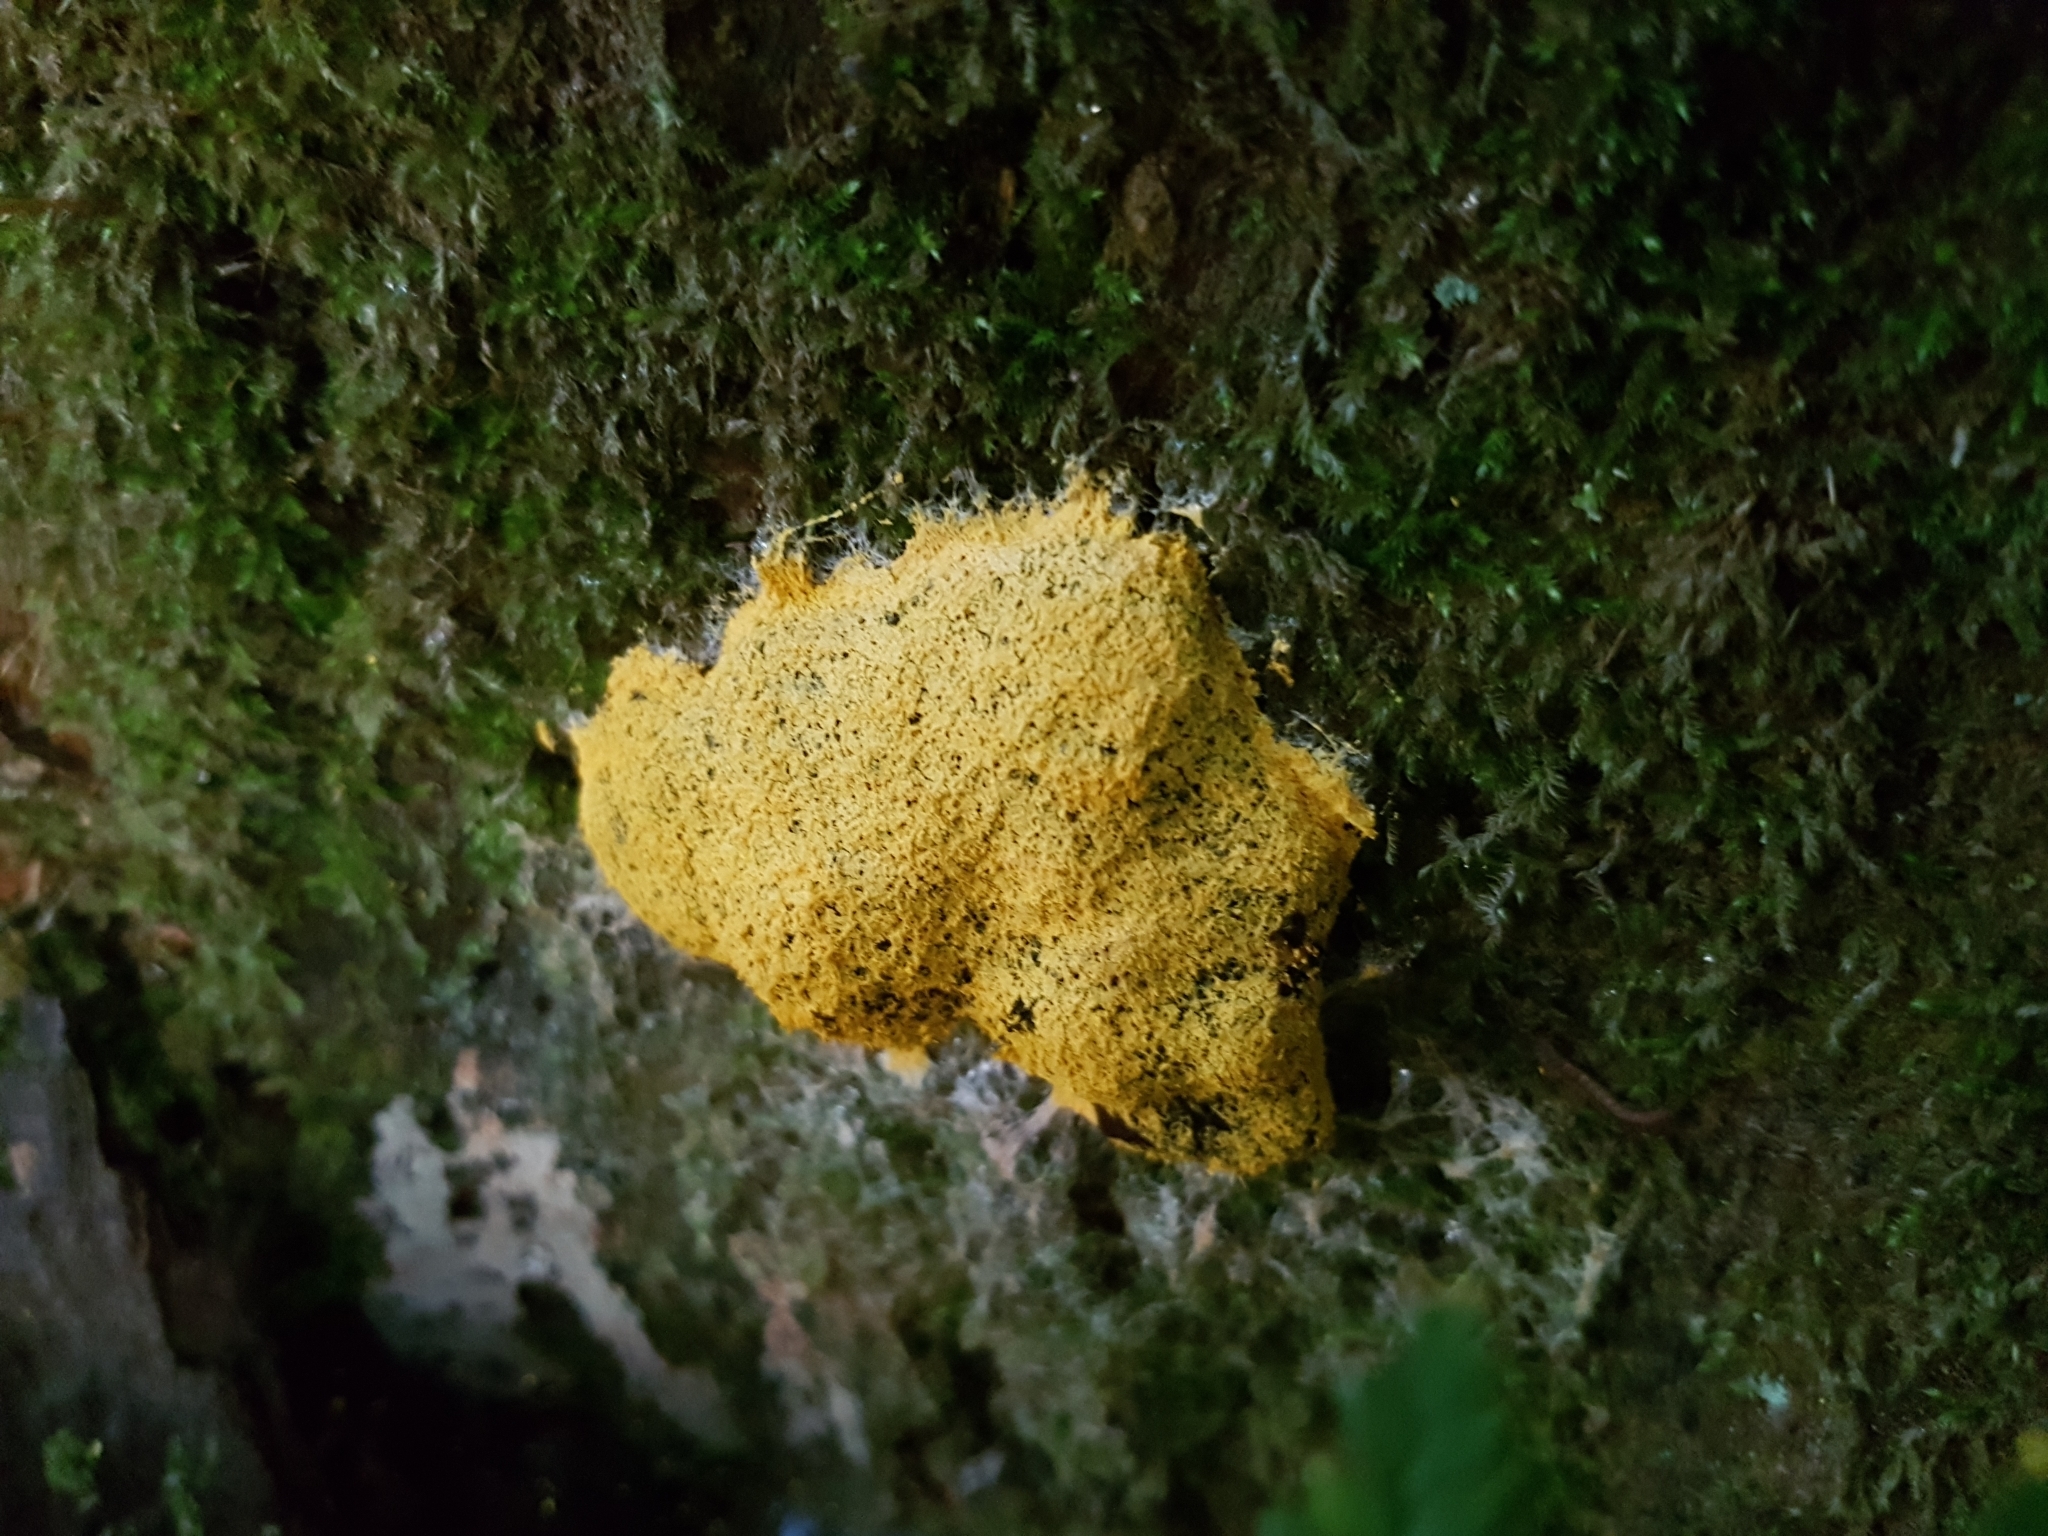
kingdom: Protozoa
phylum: Mycetozoa
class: Myxomycetes
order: Physarales
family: Physaraceae
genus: Fuligo
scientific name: Fuligo septica
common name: Dog vomit slime mold
